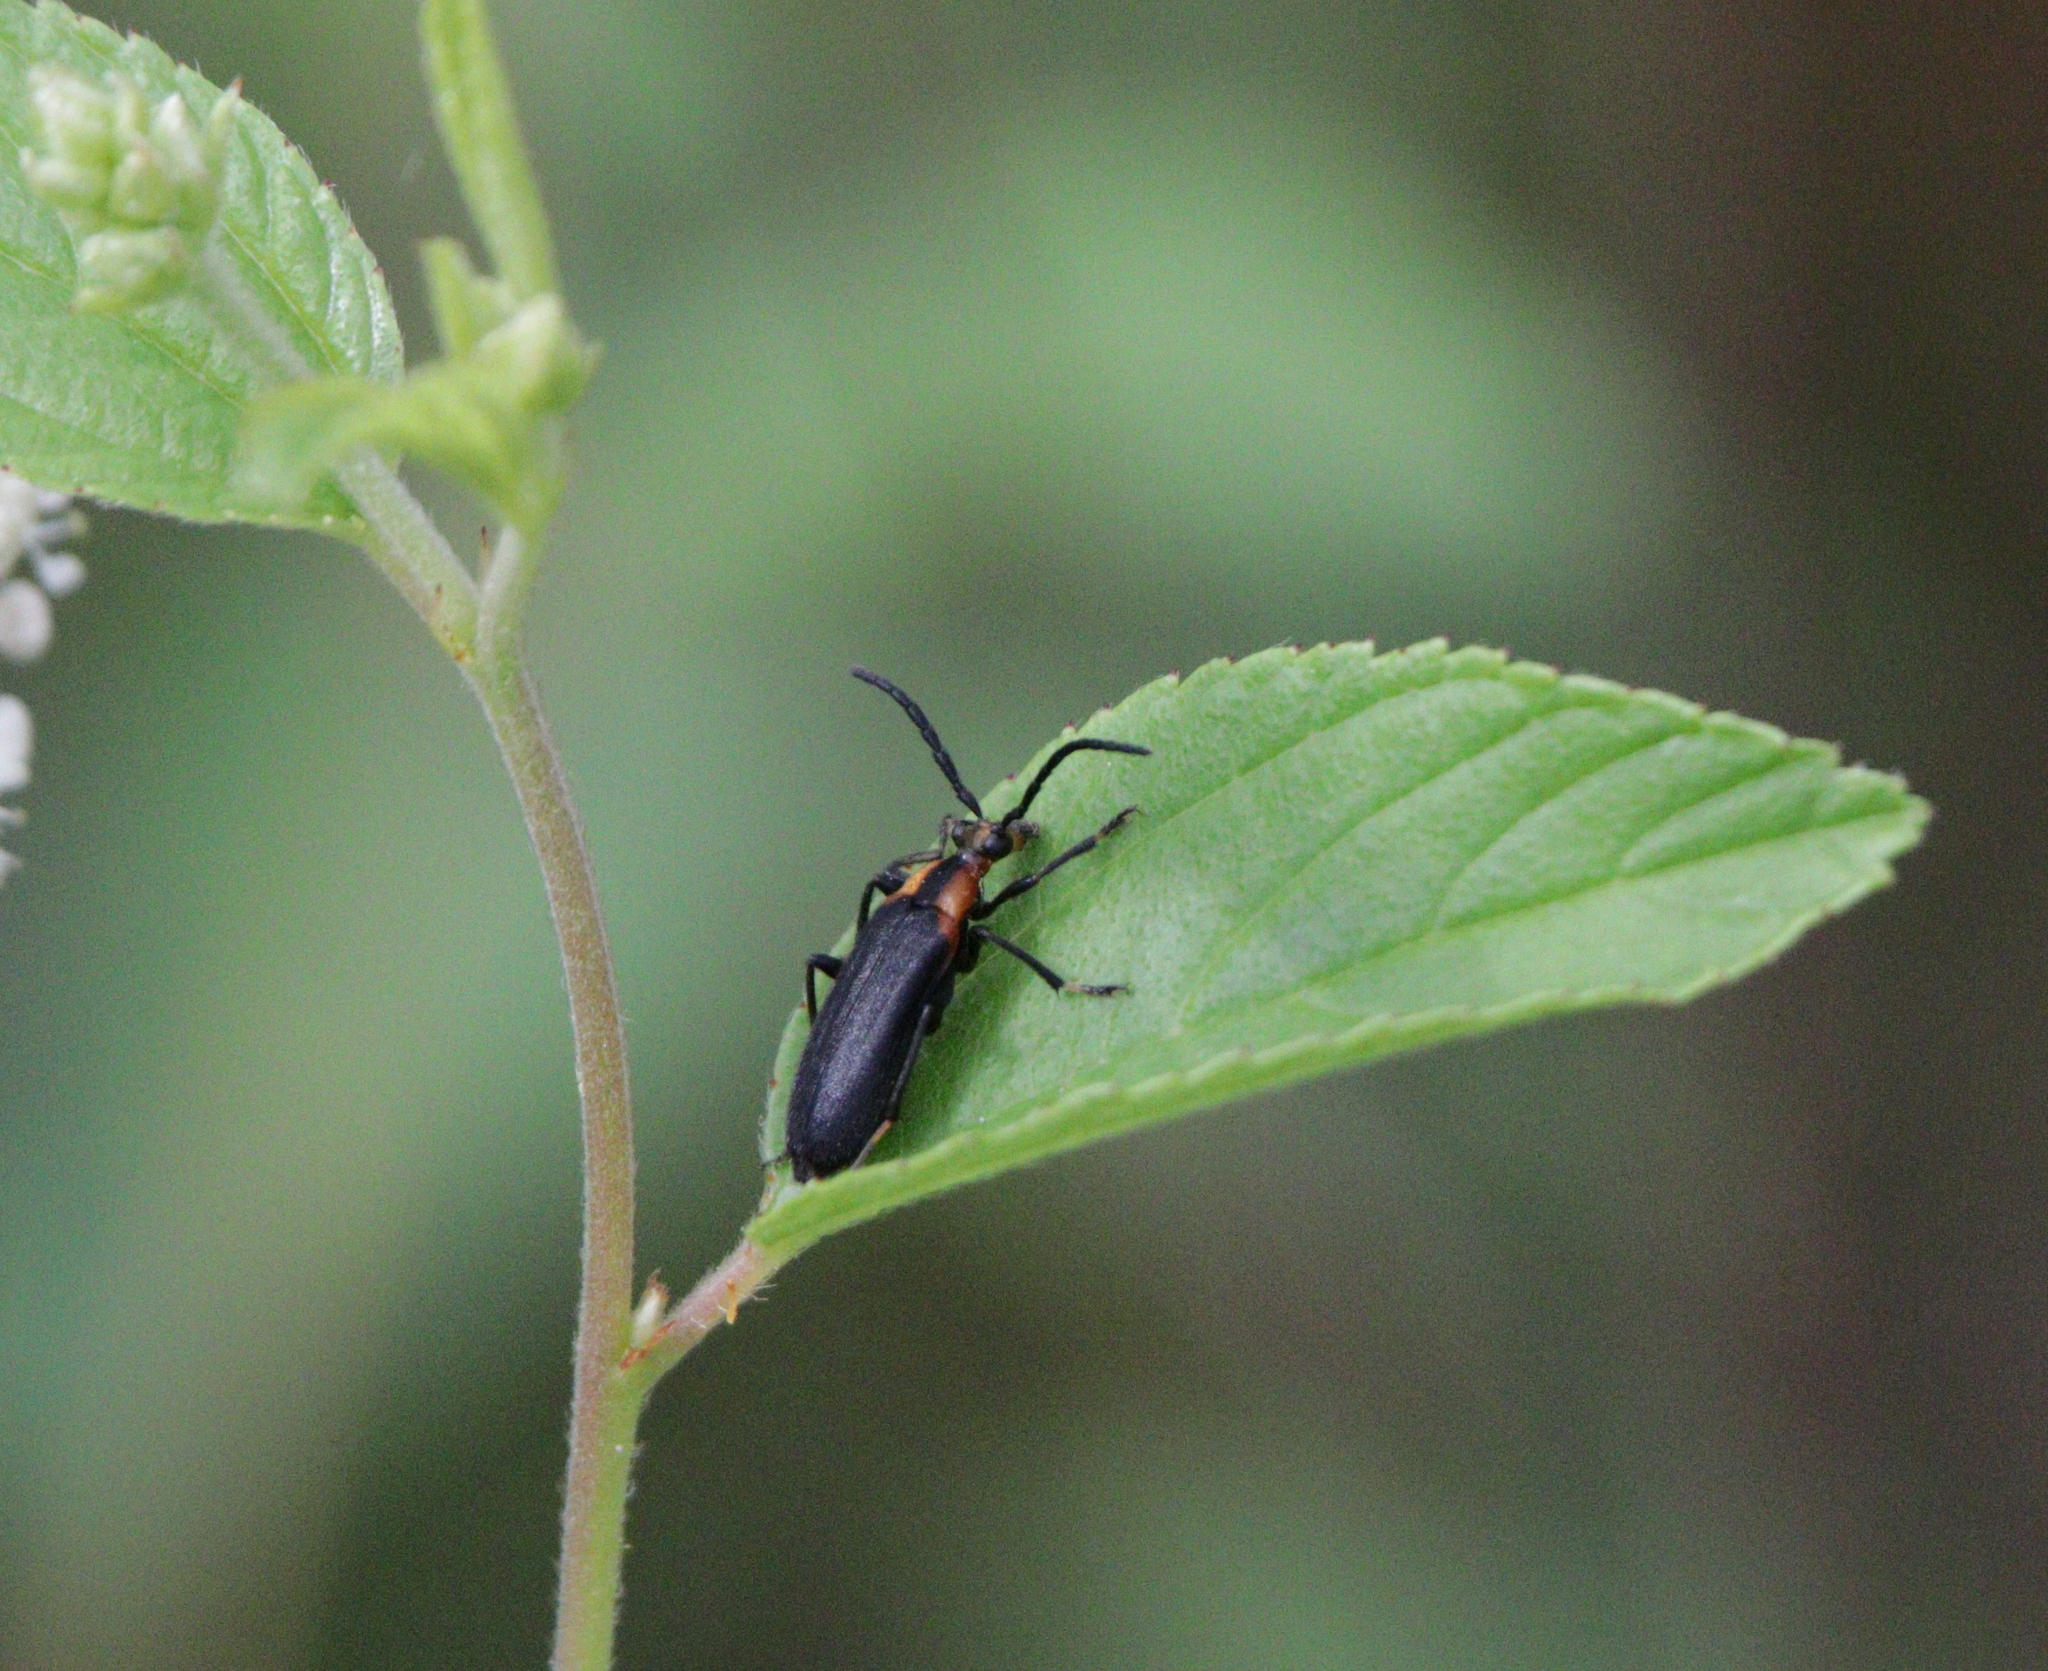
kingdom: Animalia
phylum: Arthropoda
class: Insecta
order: Coleoptera
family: Cerambycidae
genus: Lycochoriolaus
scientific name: Lycochoriolaus lateralis
